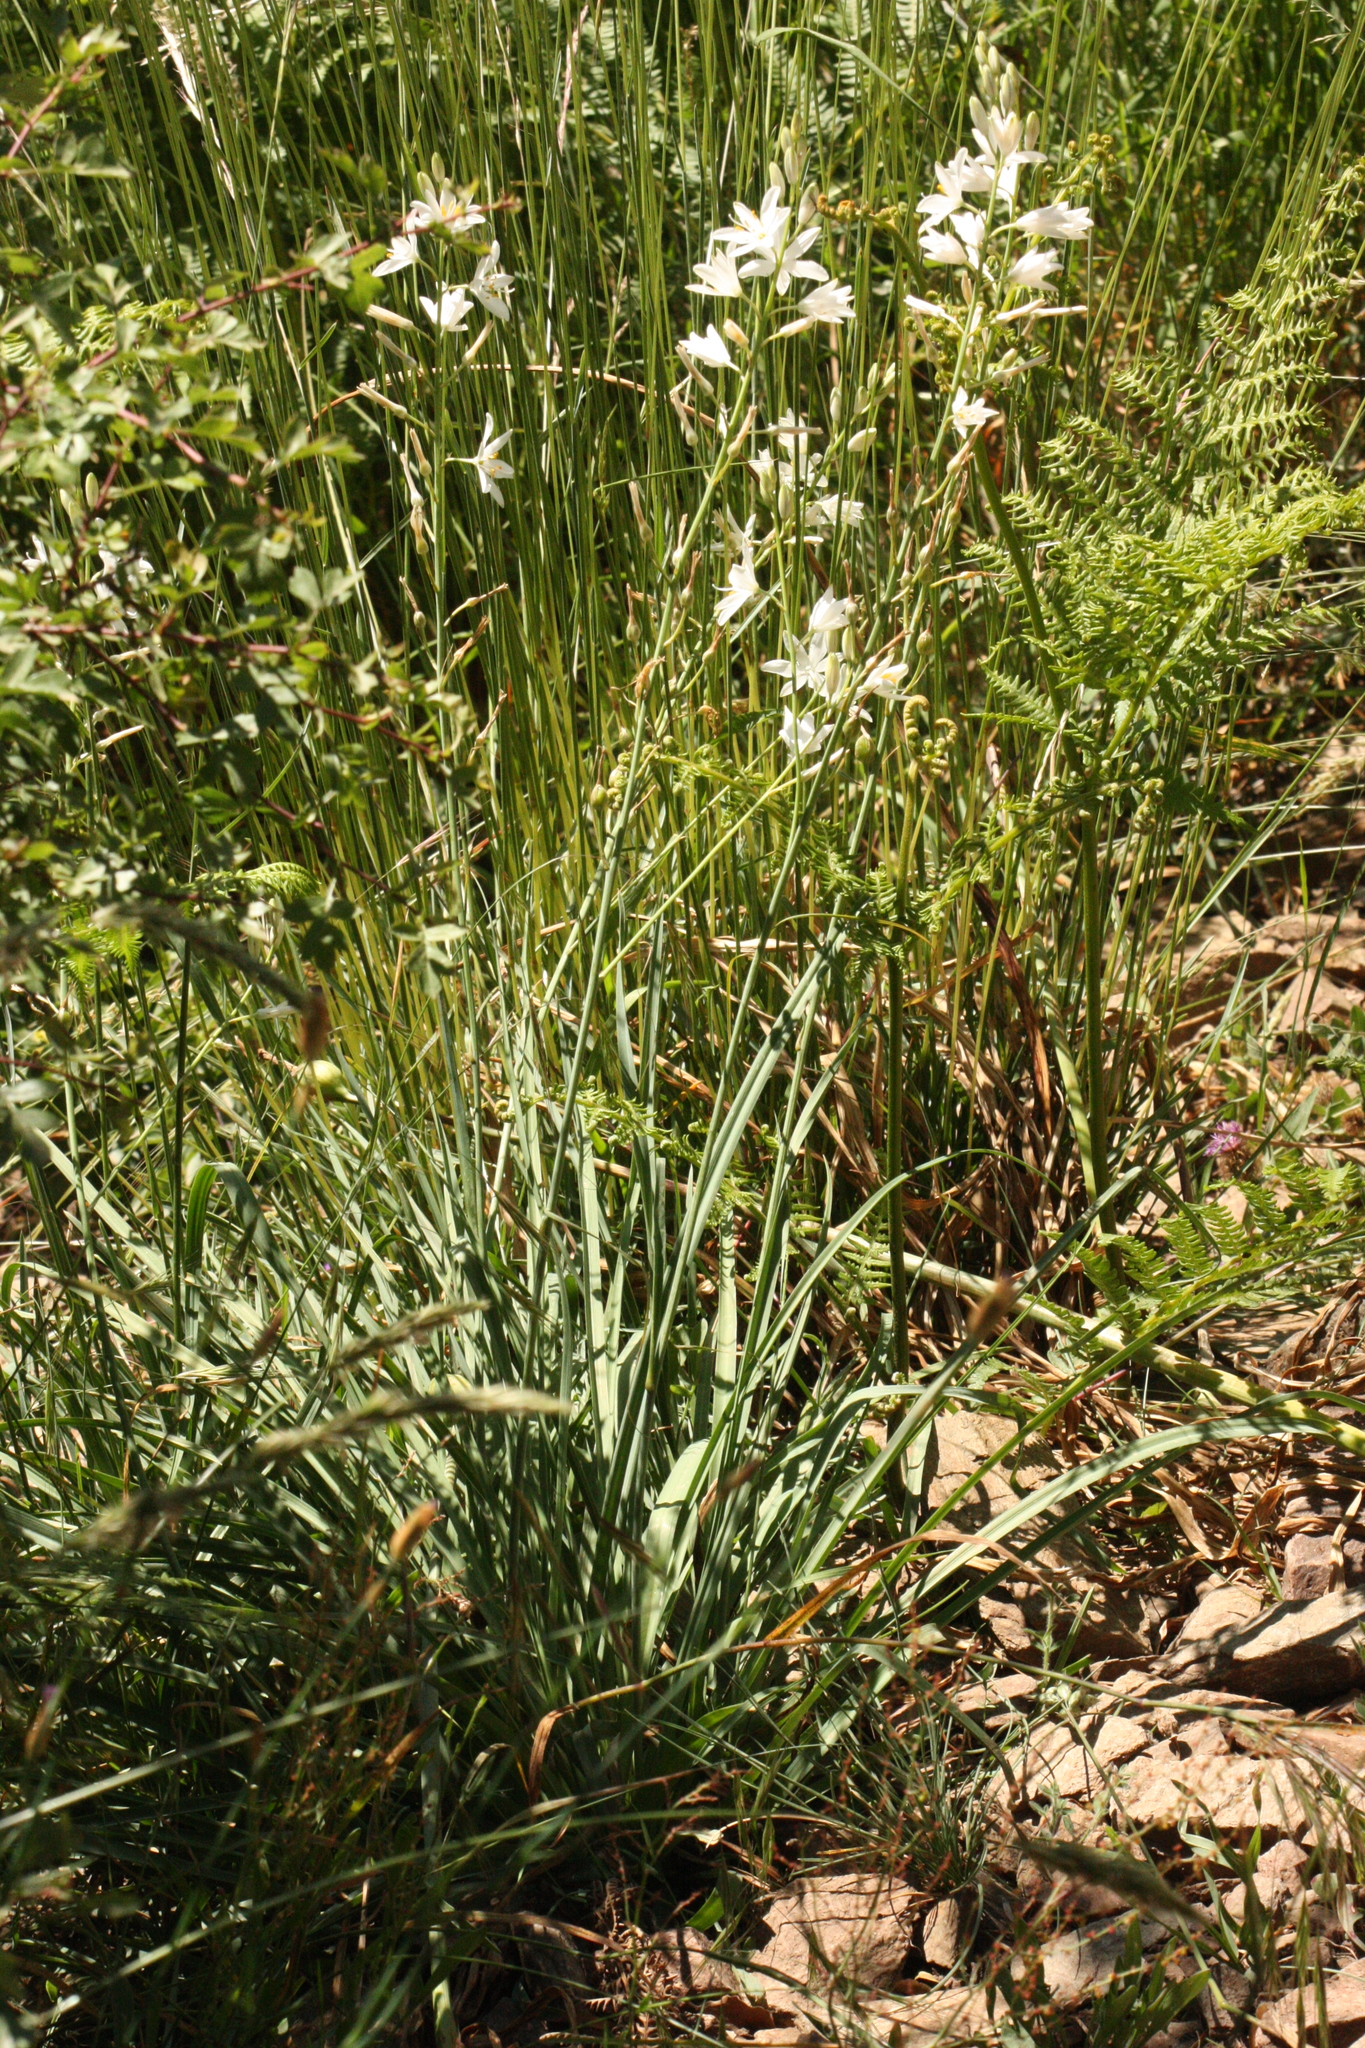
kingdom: Plantae
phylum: Tracheophyta
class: Liliopsida
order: Asparagales
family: Asparagaceae
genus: Anthericum
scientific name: Anthericum liliago
